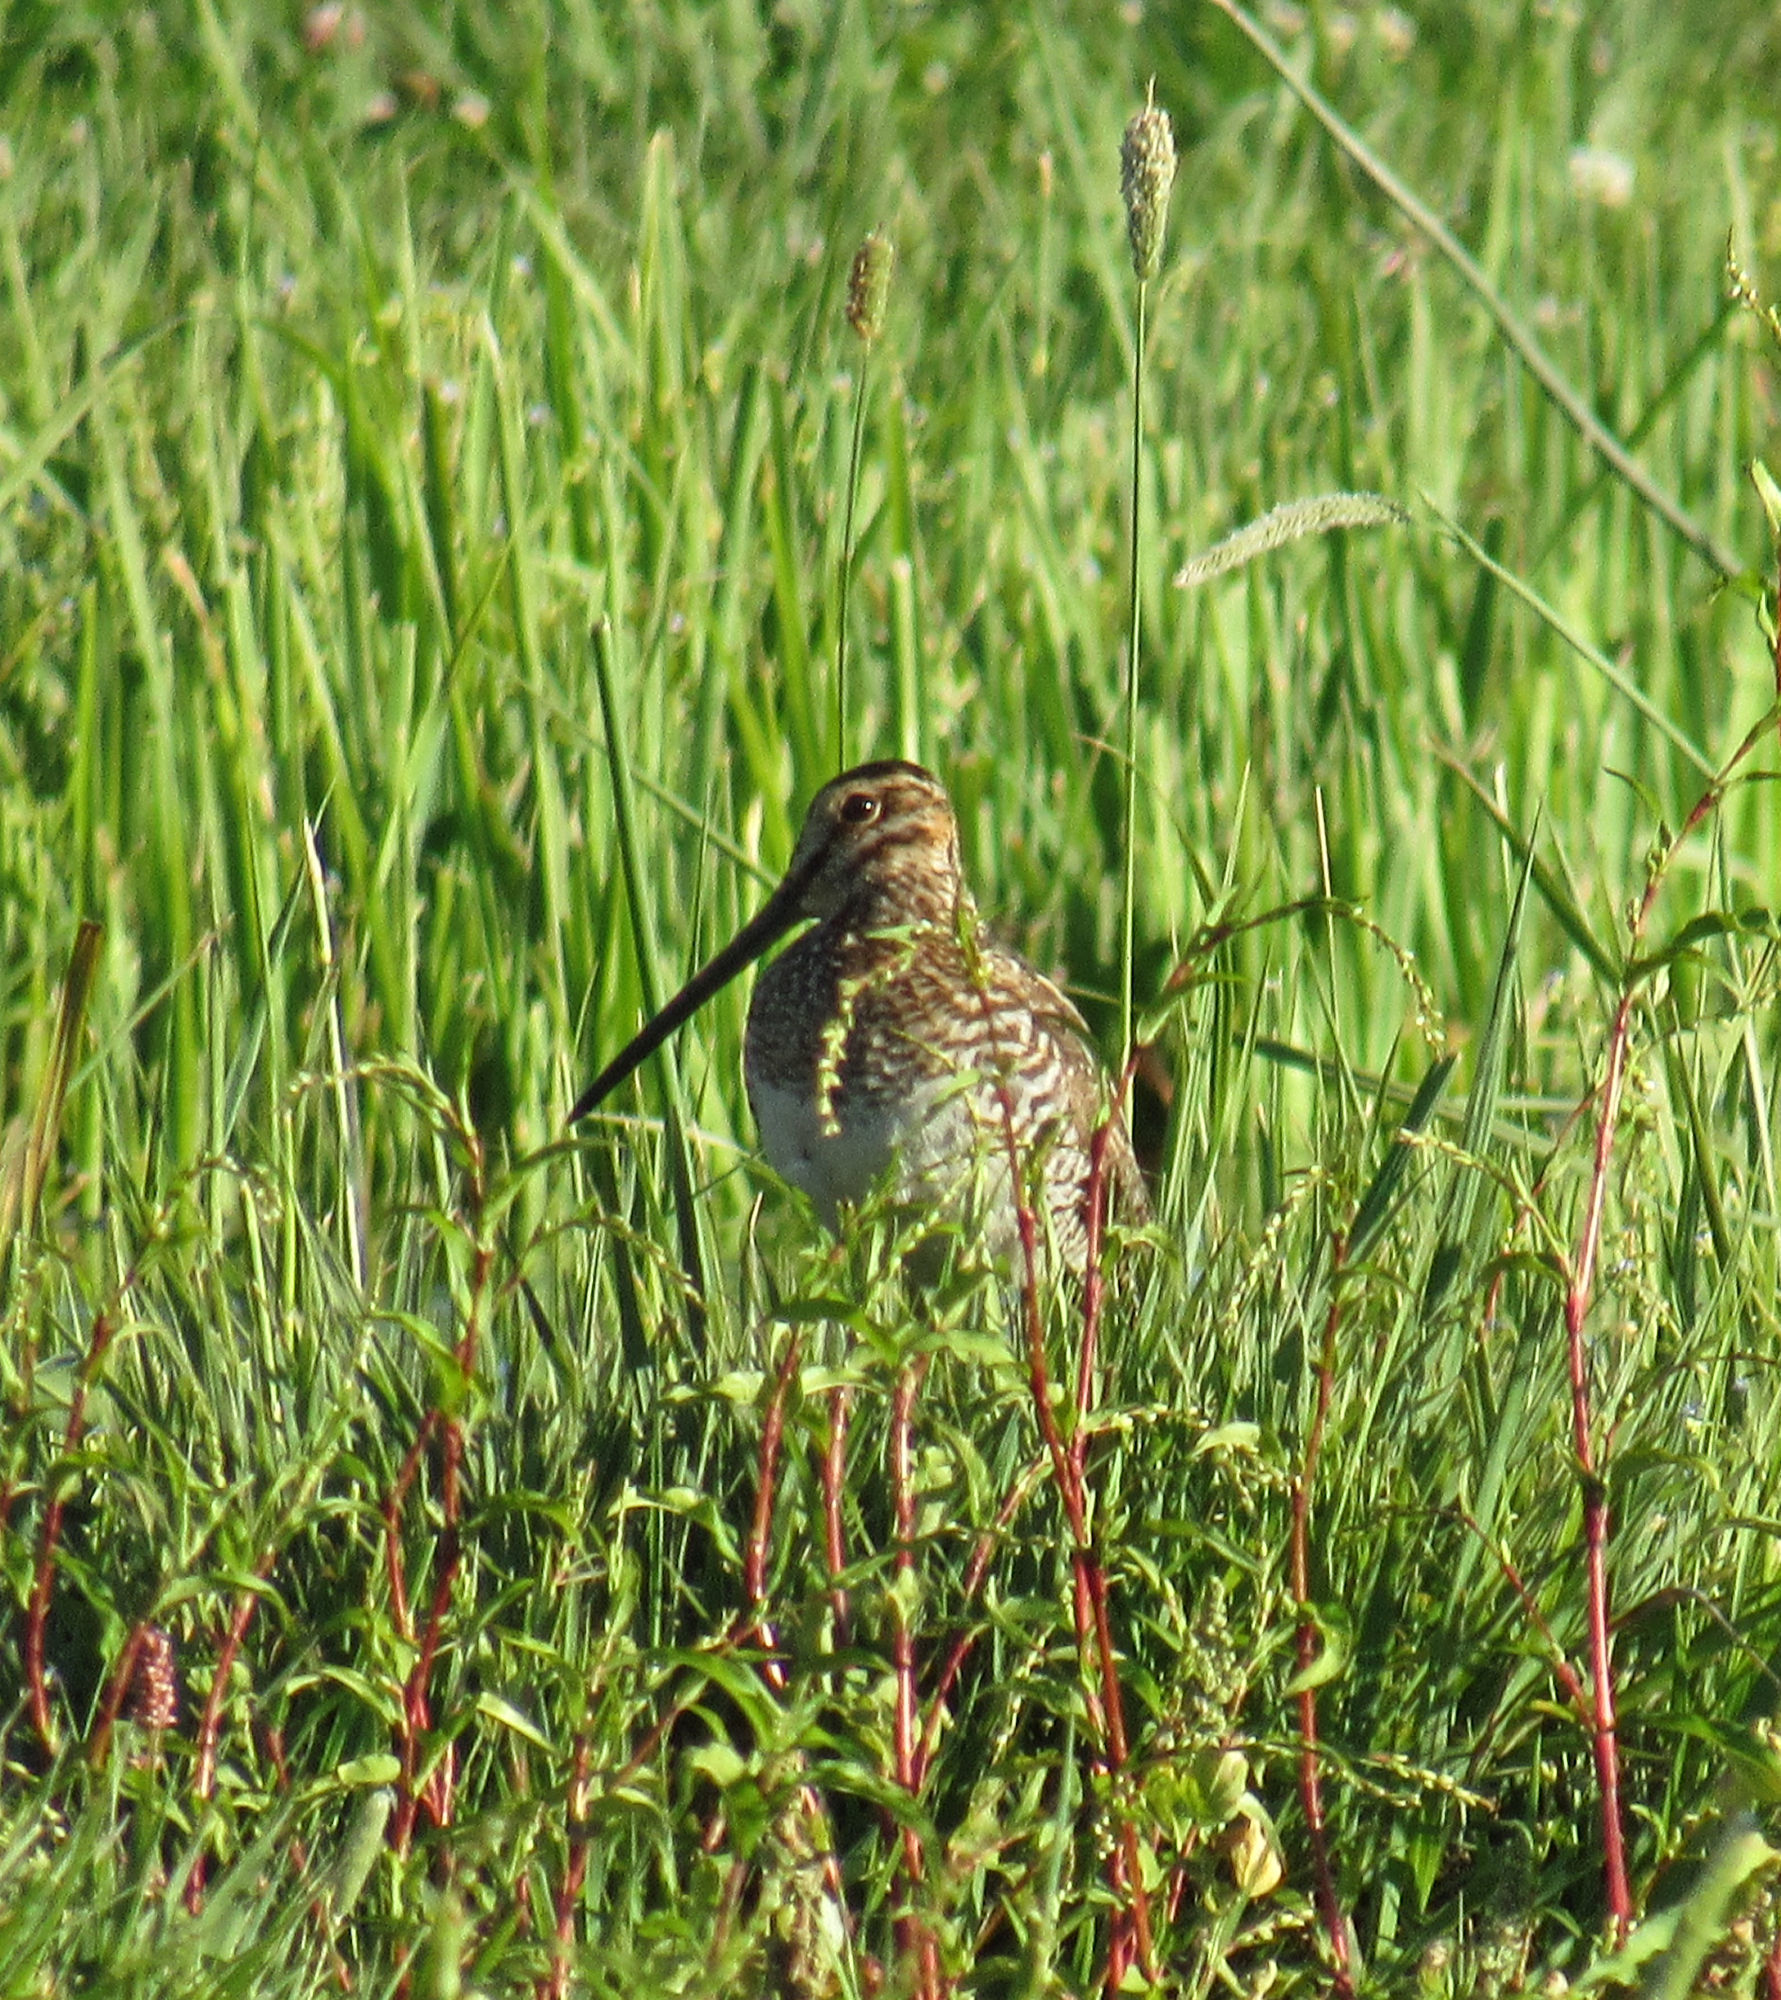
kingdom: Animalia
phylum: Chordata
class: Aves
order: Charadriiformes
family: Scolopacidae
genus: Gallinago
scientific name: Gallinago delicata
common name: Wilson's snipe
